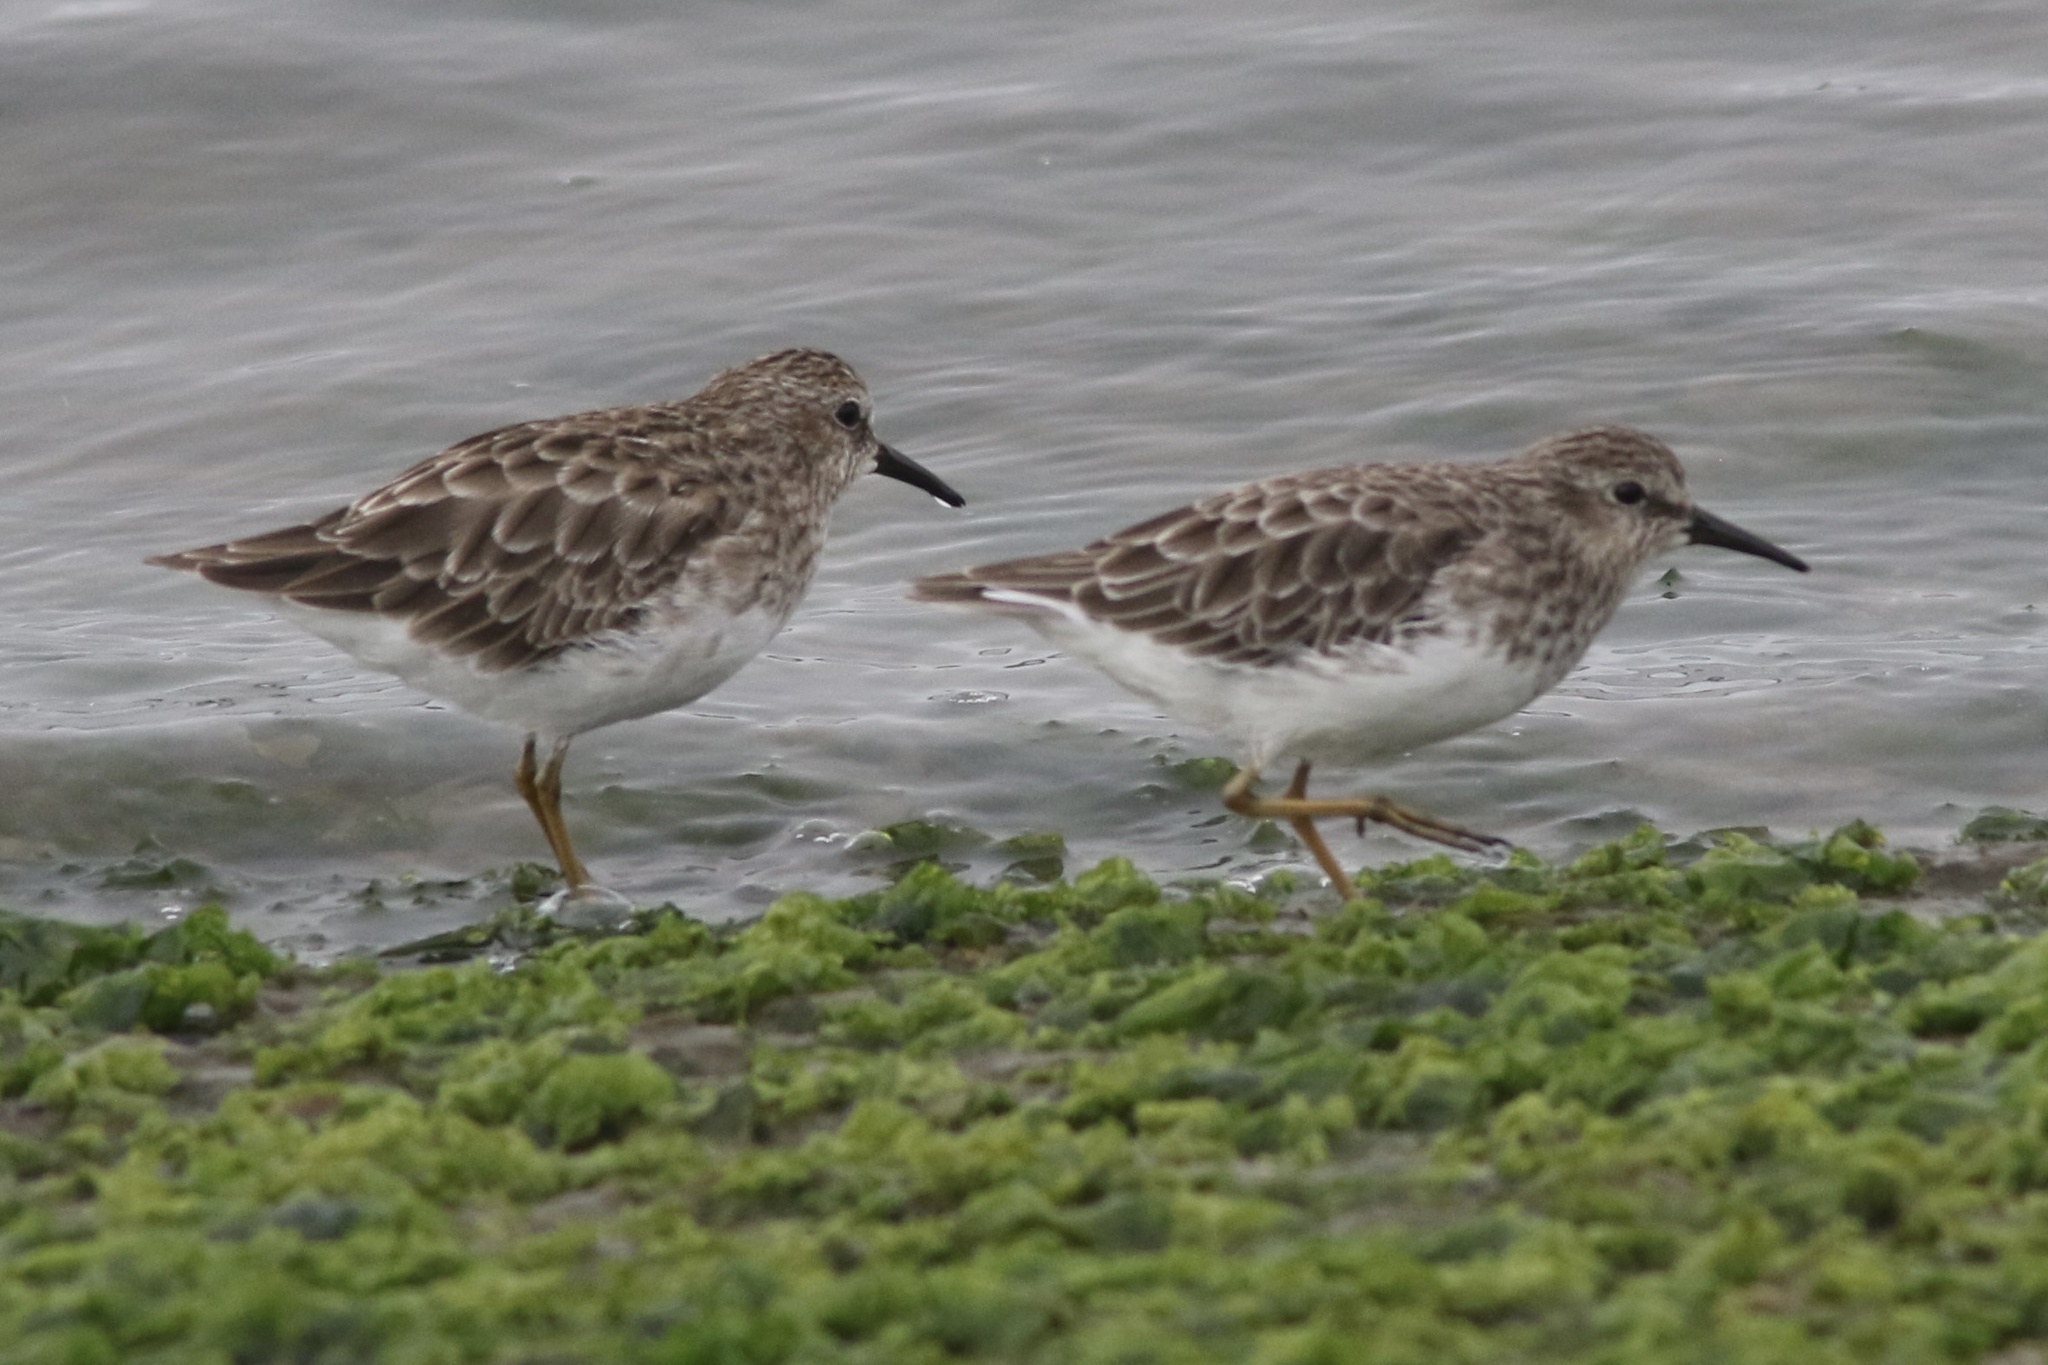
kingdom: Animalia
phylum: Chordata
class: Aves
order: Charadriiformes
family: Scolopacidae
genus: Calidris
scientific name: Calidris minutilla
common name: Least sandpiper
